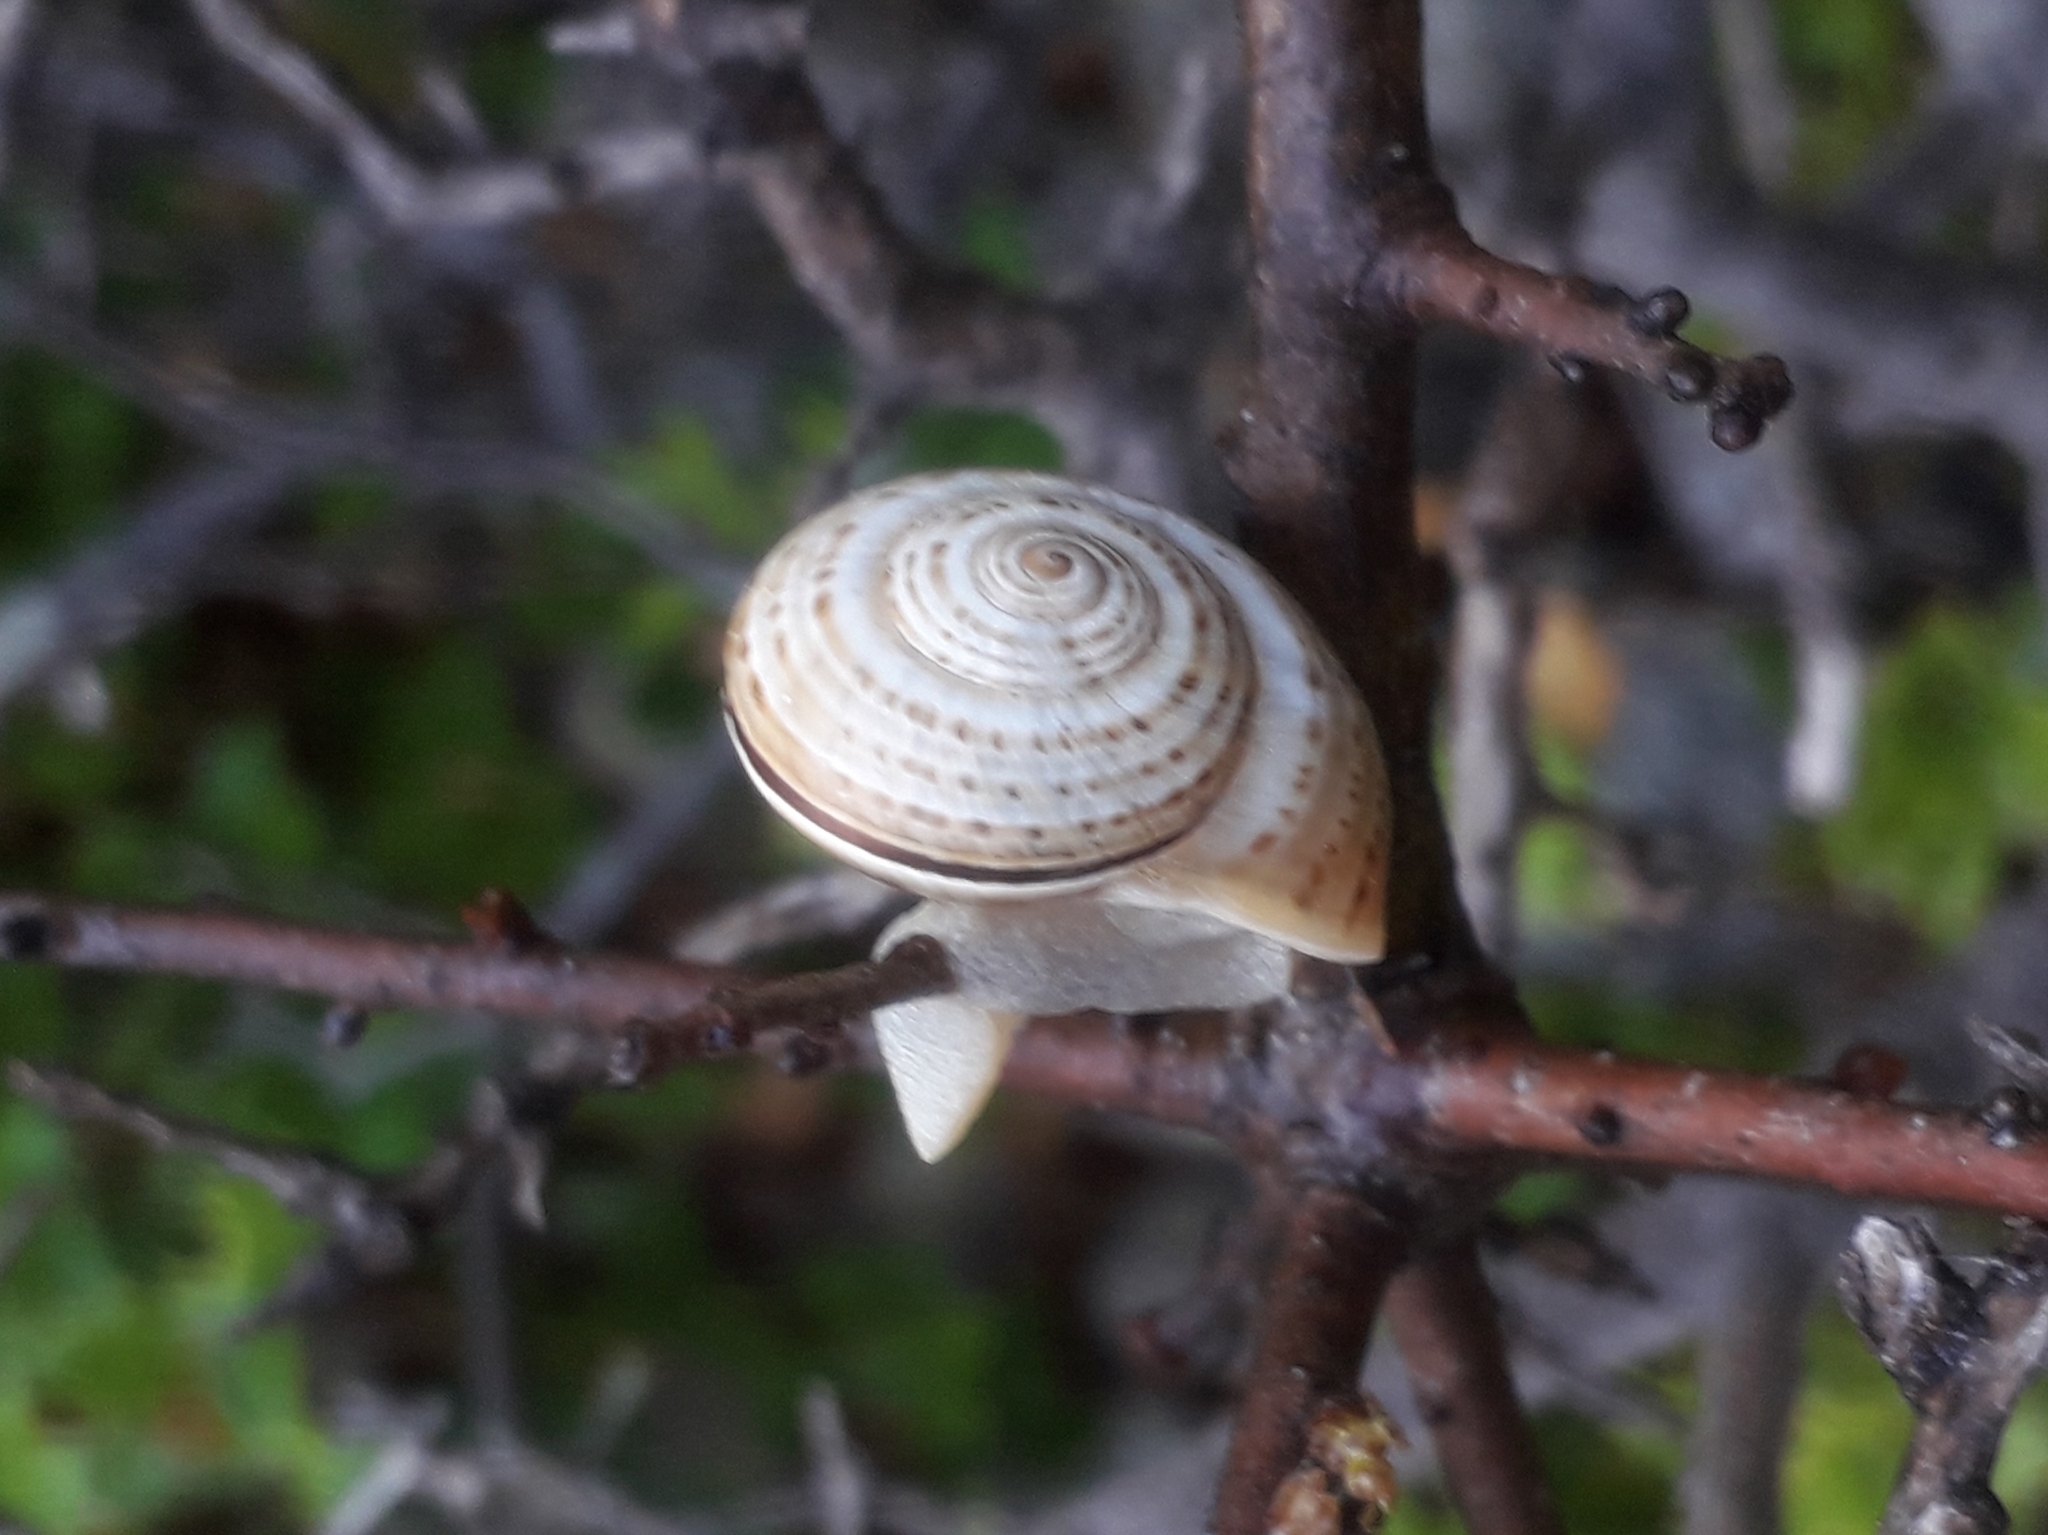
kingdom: Animalia
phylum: Mollusca
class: Gastropoda
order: Stylommatophora
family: Helicidae
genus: Pseudotachea
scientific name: Pseudotachea splendida
